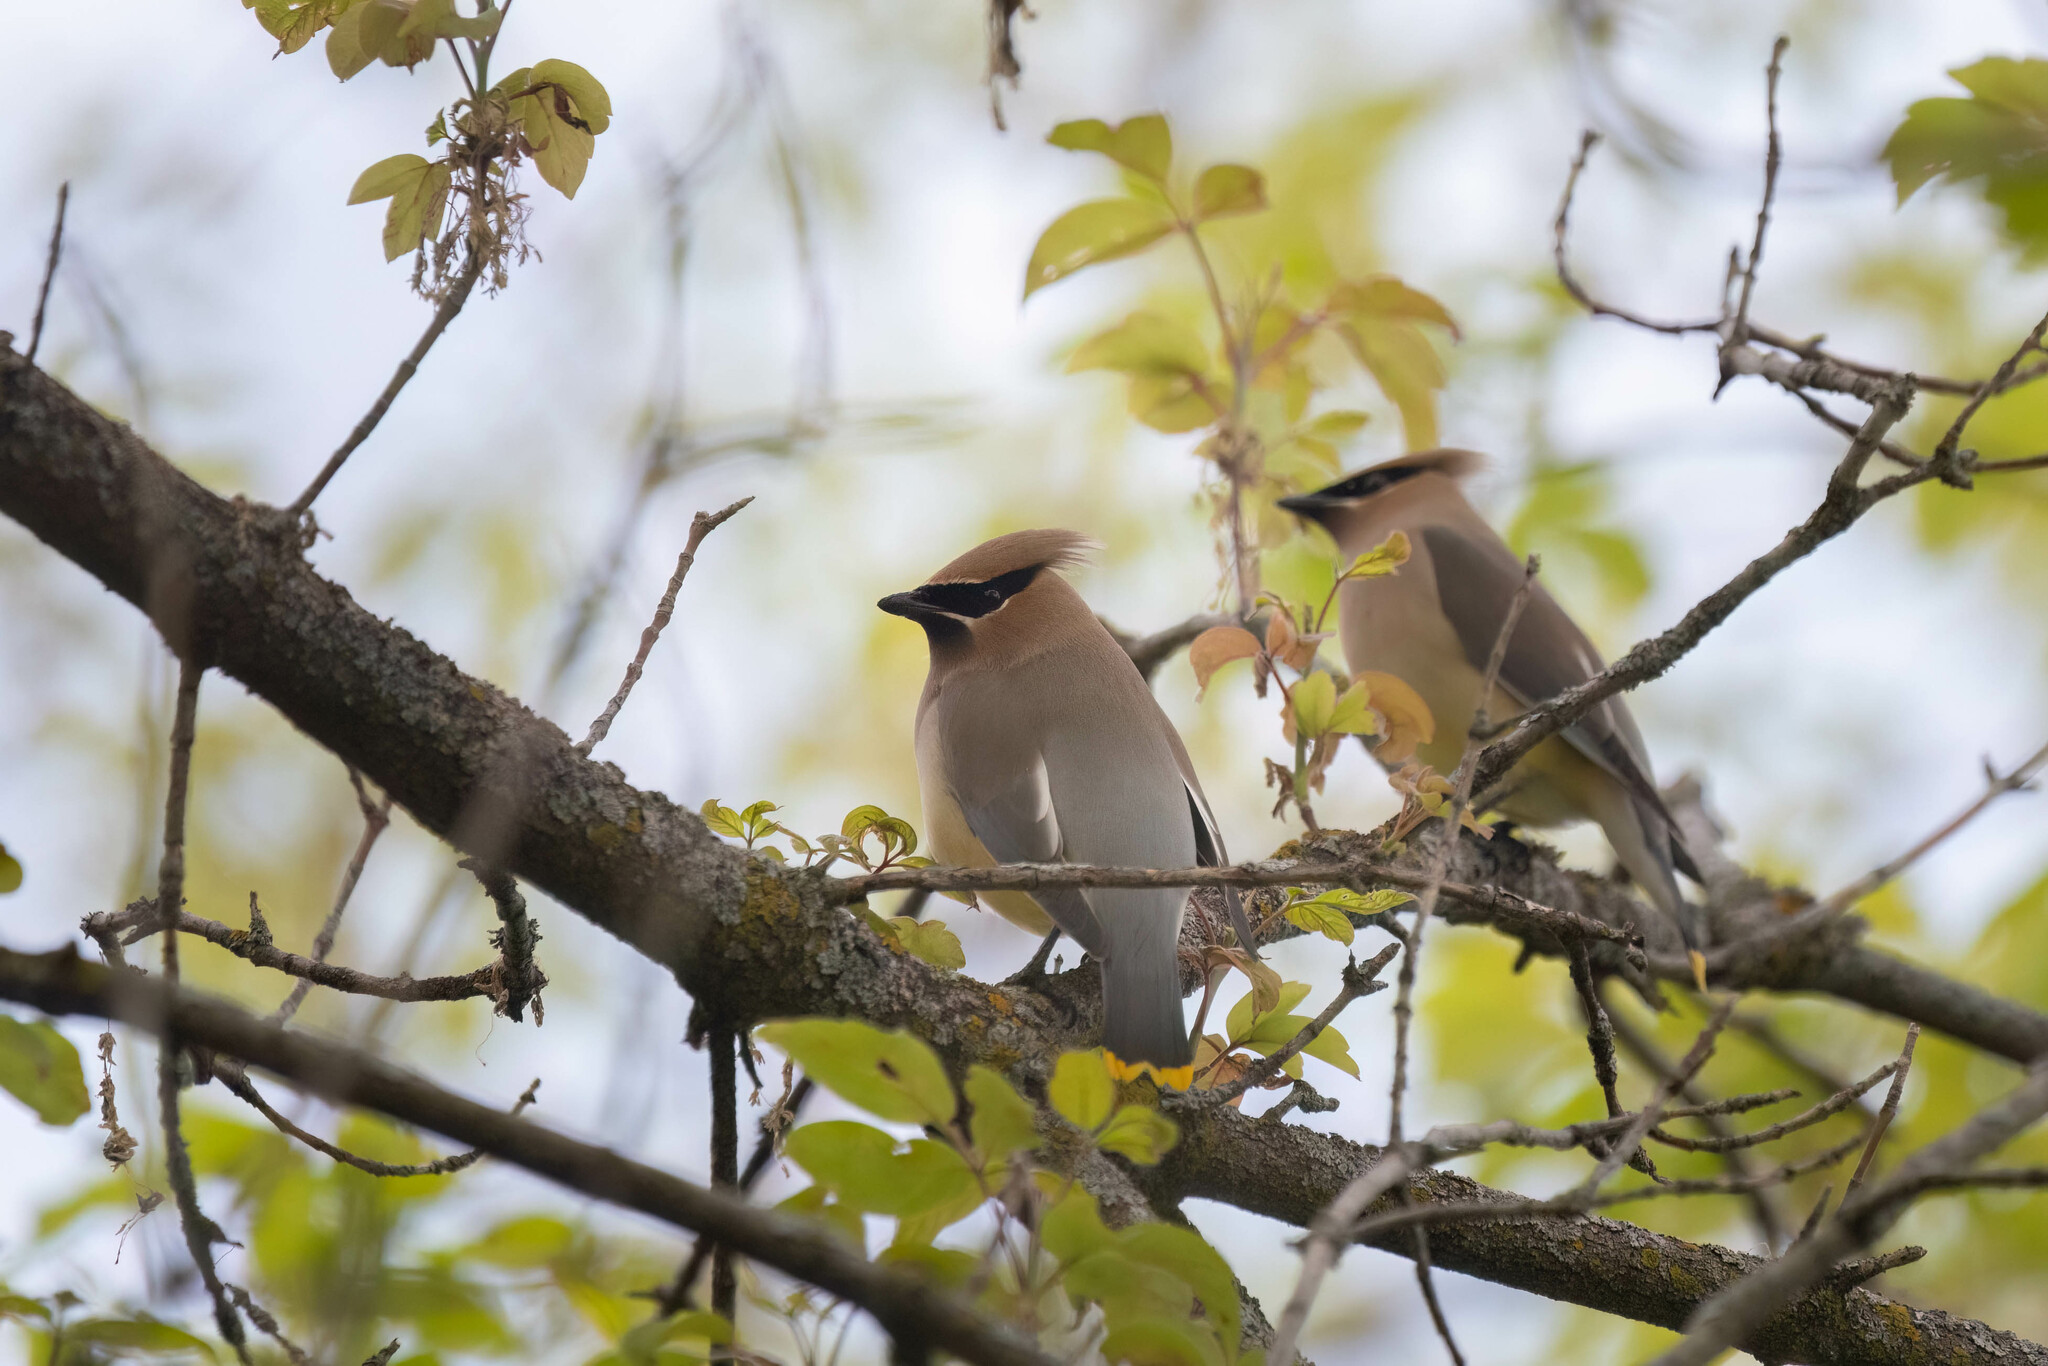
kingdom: Animalia
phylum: Chordata
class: Aves
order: Passeriformes
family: Bombycillidae
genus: Bombycilla
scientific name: Bombycilla cedrorum
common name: Cedar waxwing
